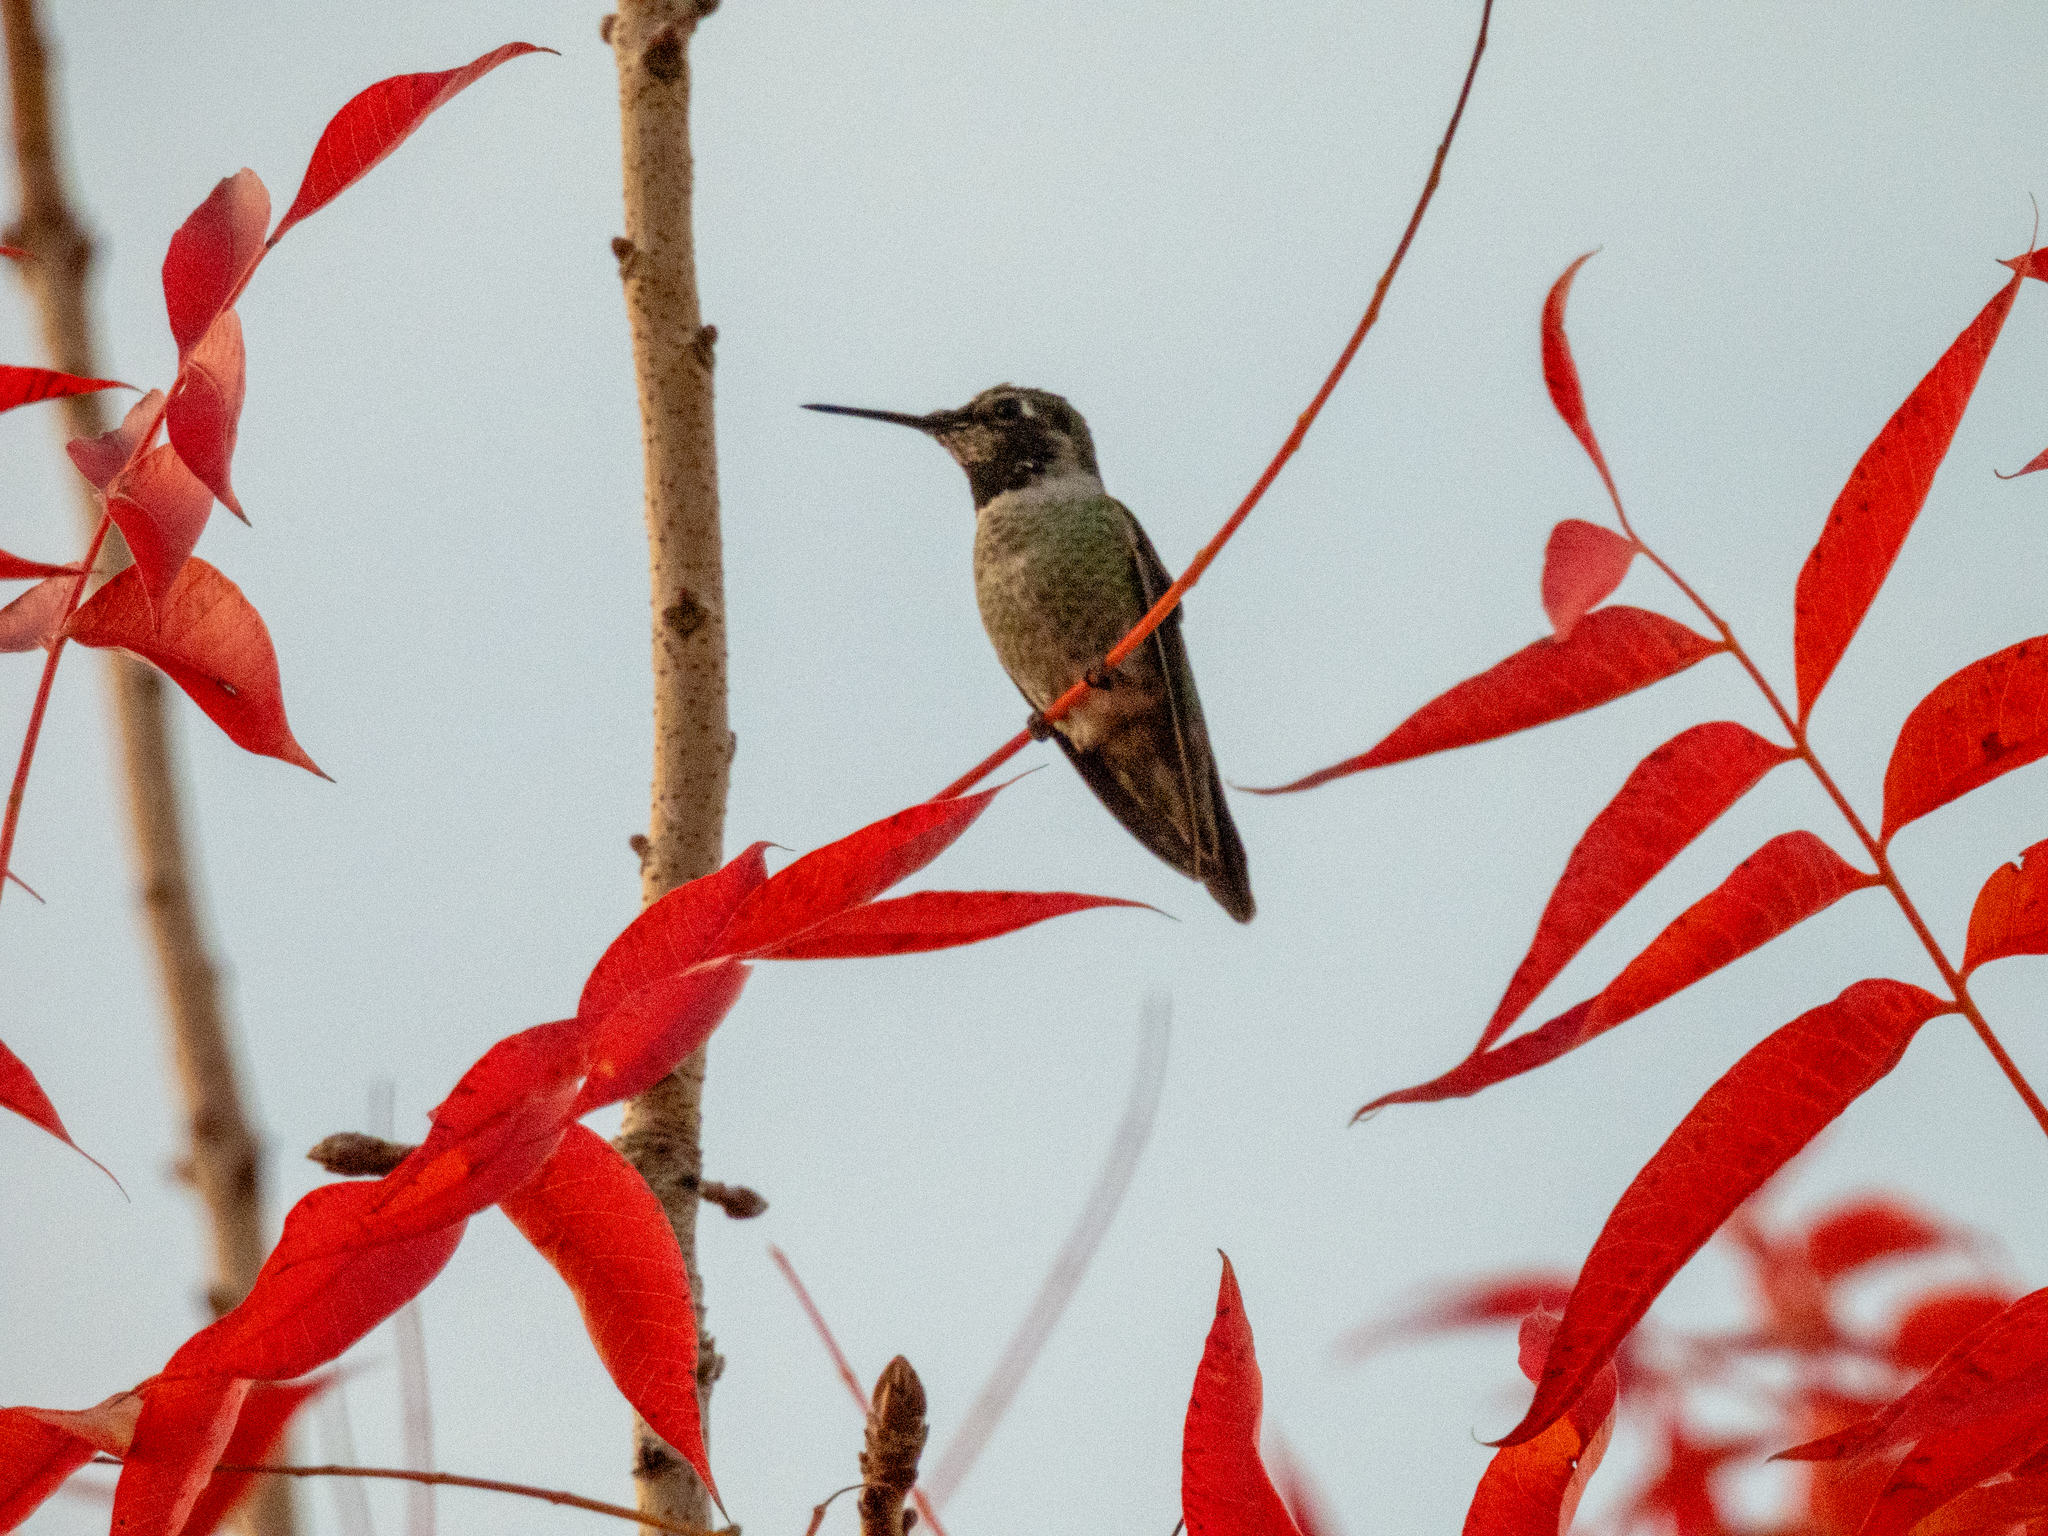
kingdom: Animalia
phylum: Chordata
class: Aves
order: Apodiformes
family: Trochilidae
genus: Calypte
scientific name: Calypte anna
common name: Anna's hummingbird
